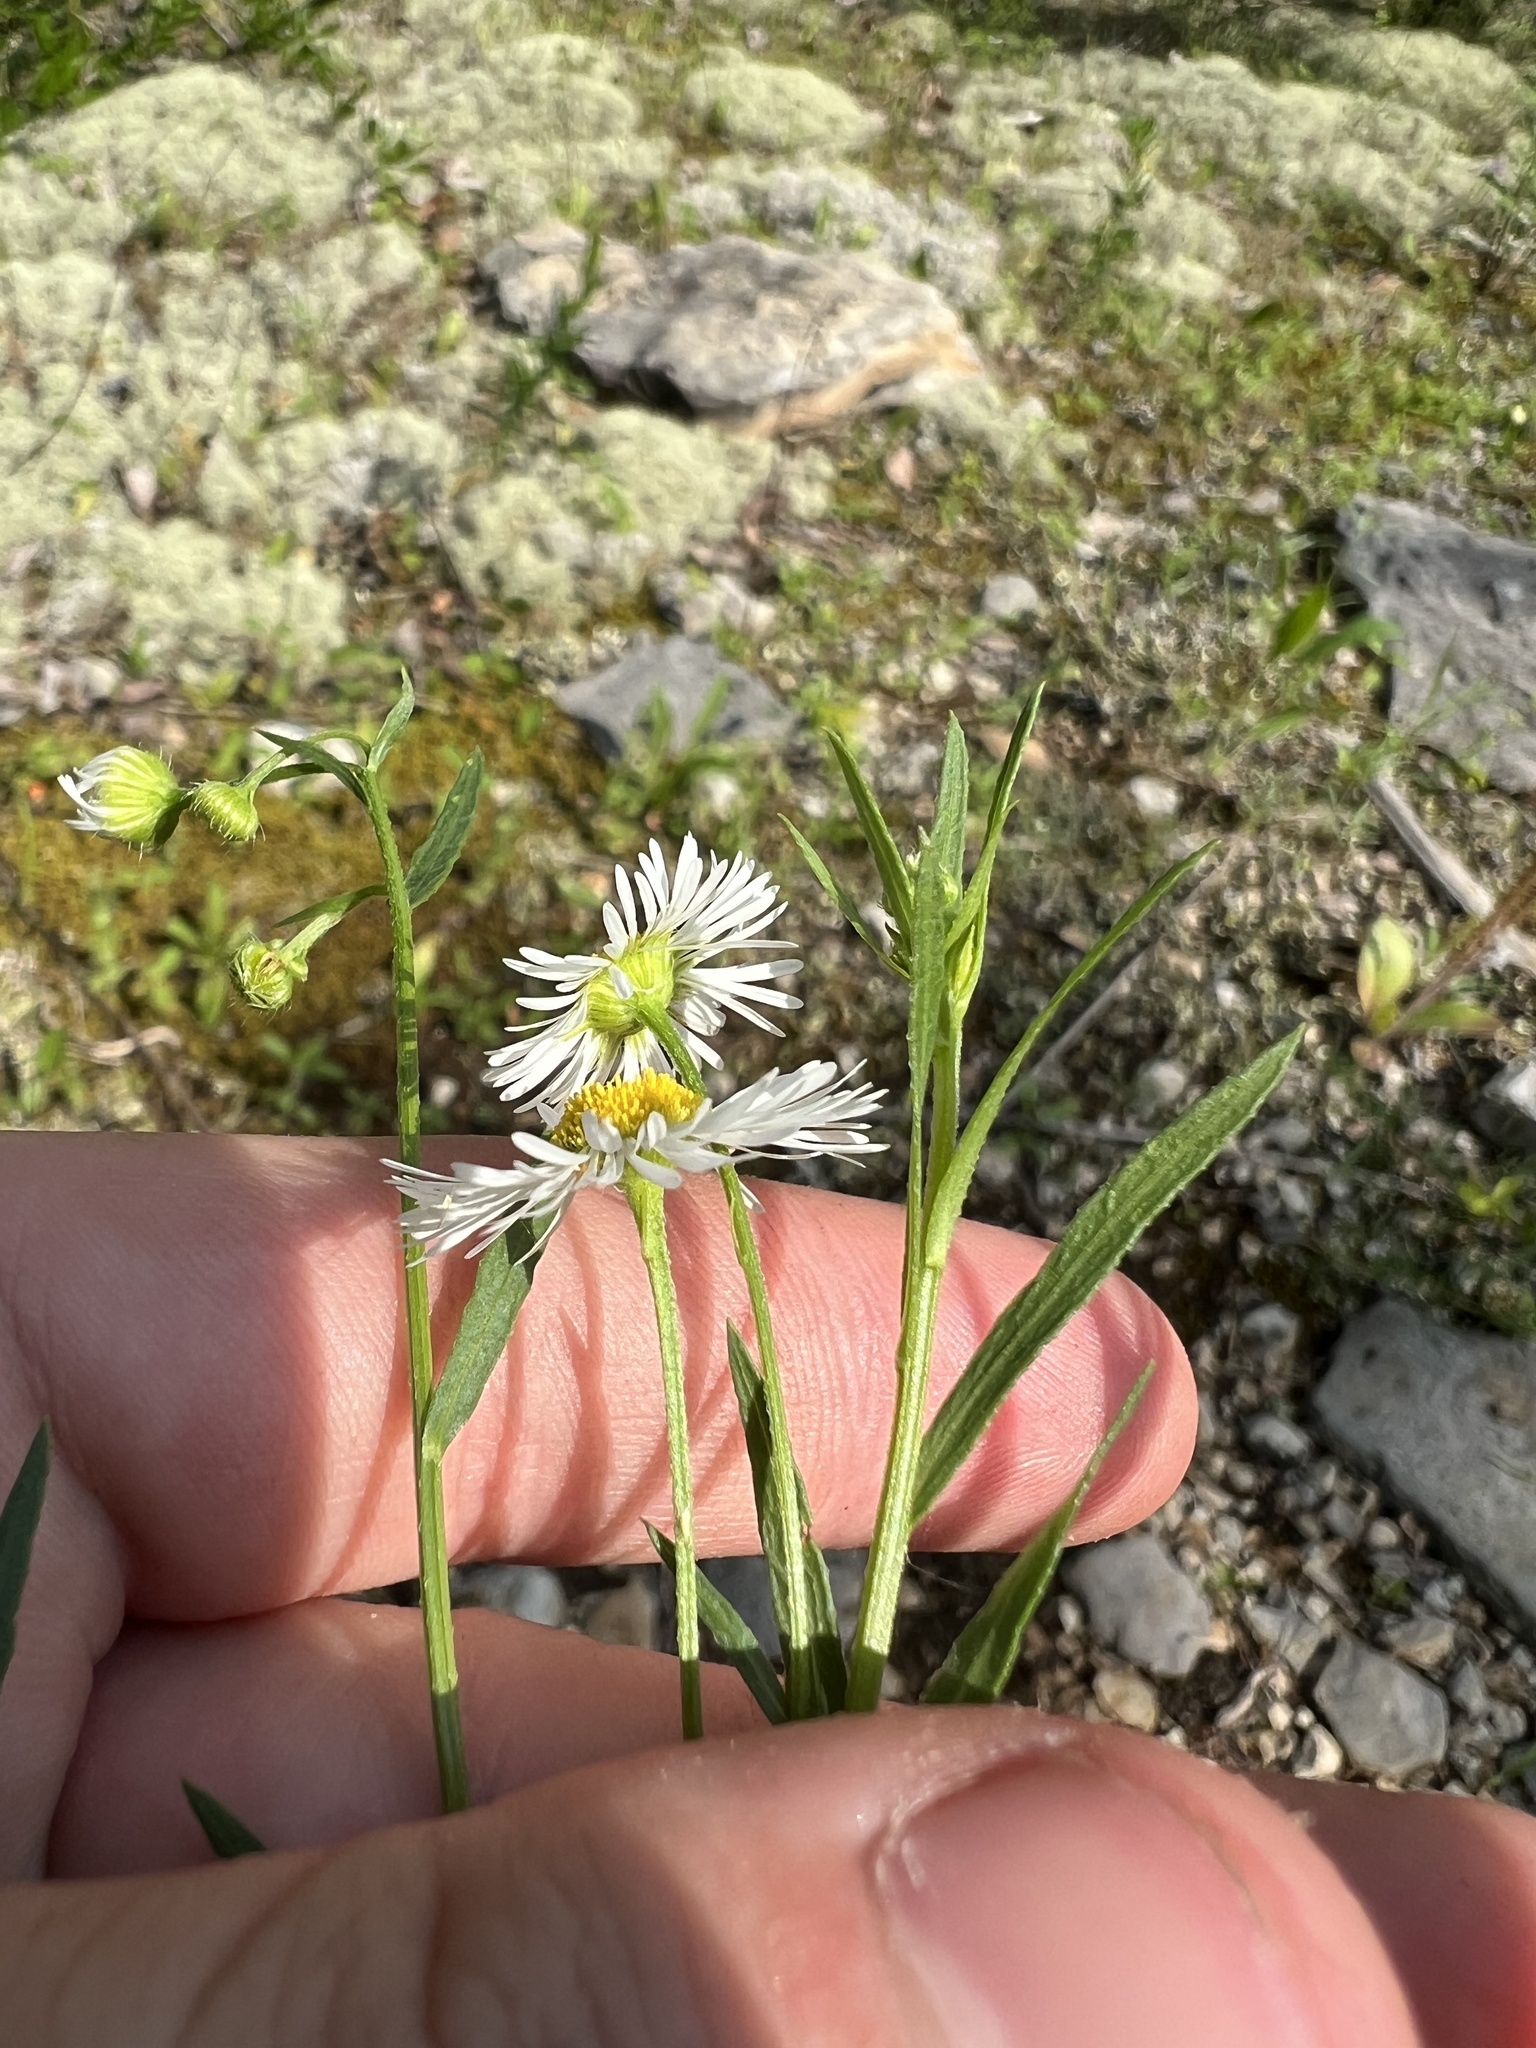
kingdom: Plantae
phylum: Tracheophyta
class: Magnoliopsida
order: Asterales
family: Asteraceae
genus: Erigeron
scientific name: Erigeron allisonii
